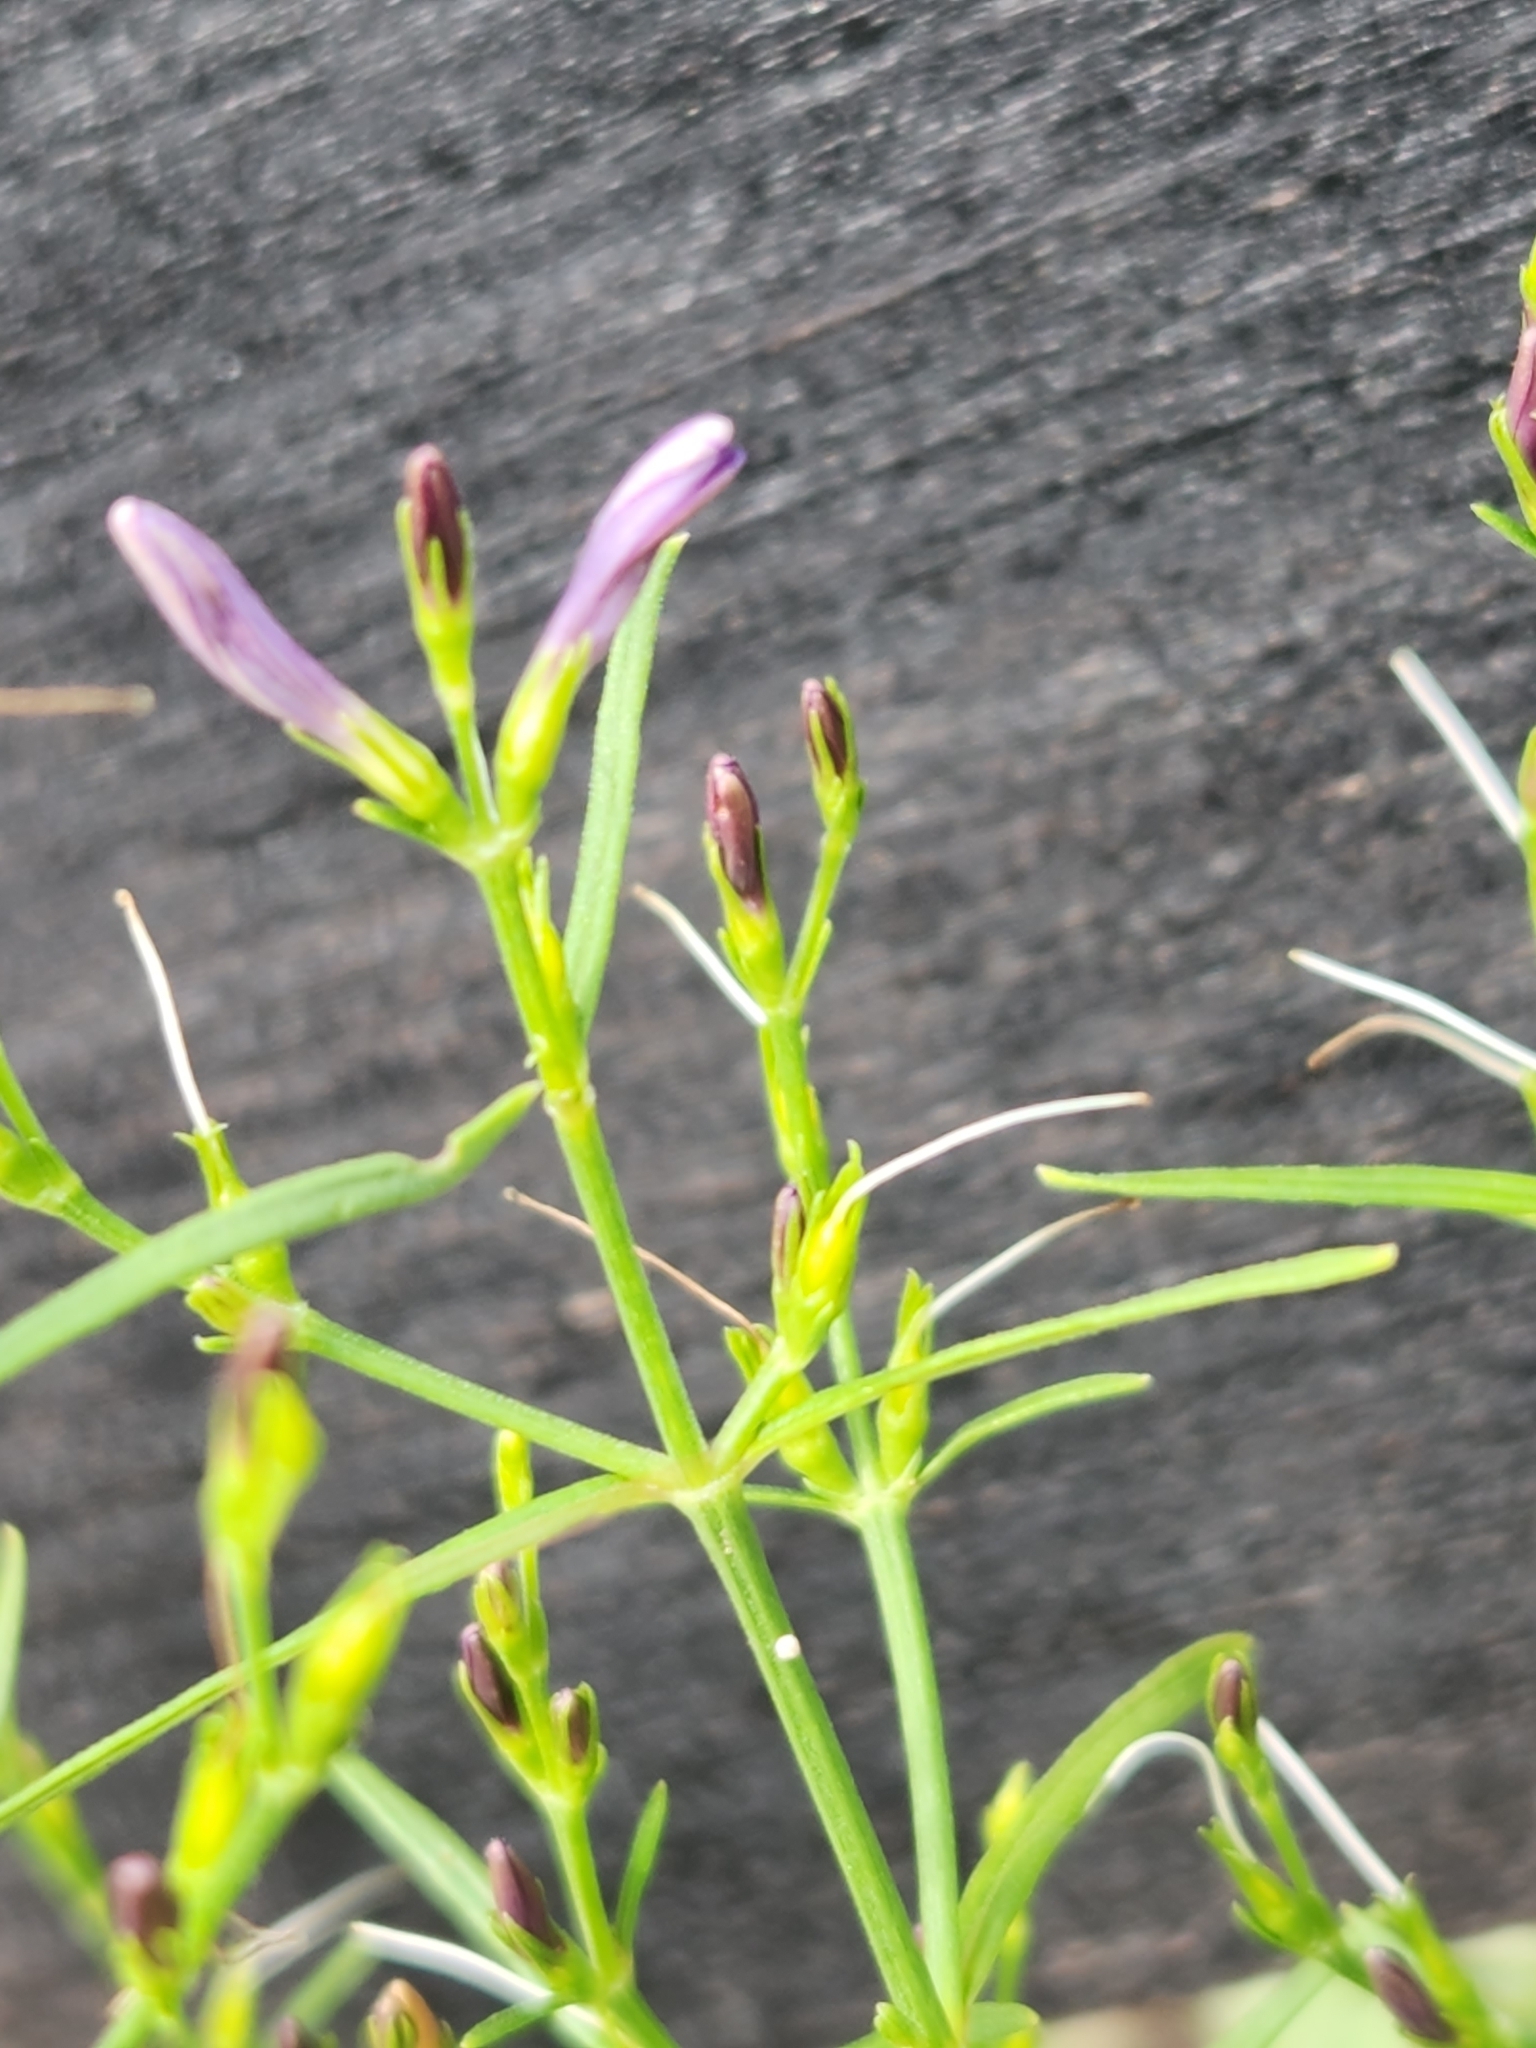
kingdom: Plantae
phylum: Tracheophyta
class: Magnoliopsida
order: Lamiales
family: Acanthaceae
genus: Carlowrightia
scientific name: Carlowrightia linearifolia
